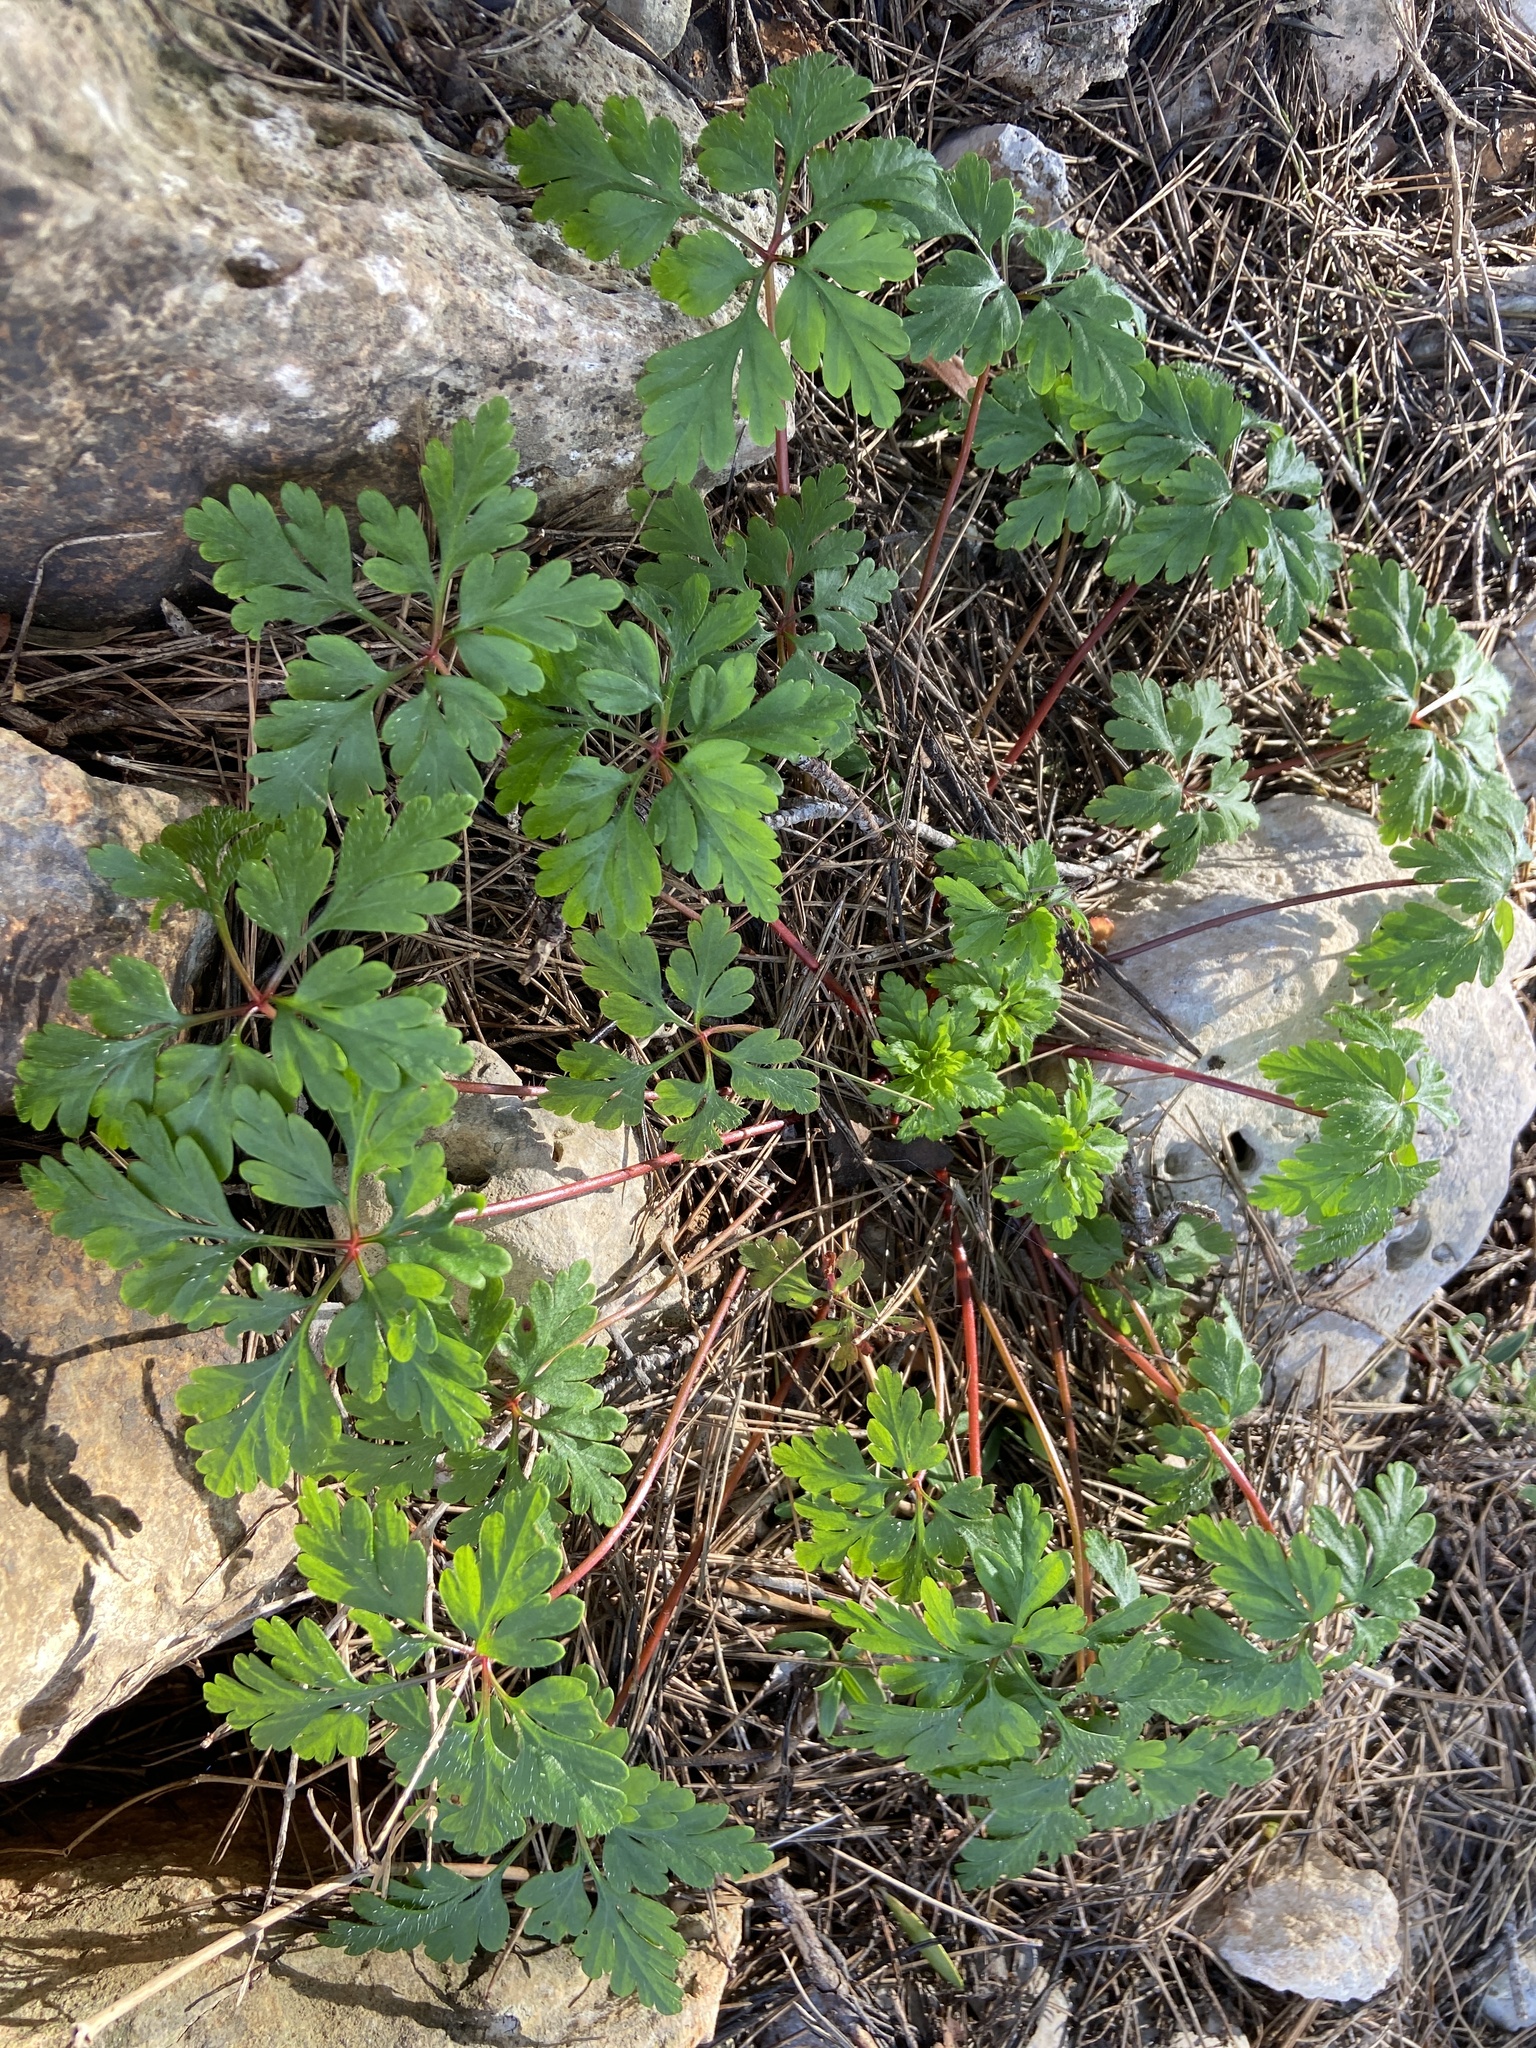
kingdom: Plantae
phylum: Tracheophyta
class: Magnoliopsida
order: Geraniales
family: Geraniaceae
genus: Geranium
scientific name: Geranium purpureum
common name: Little-robin
